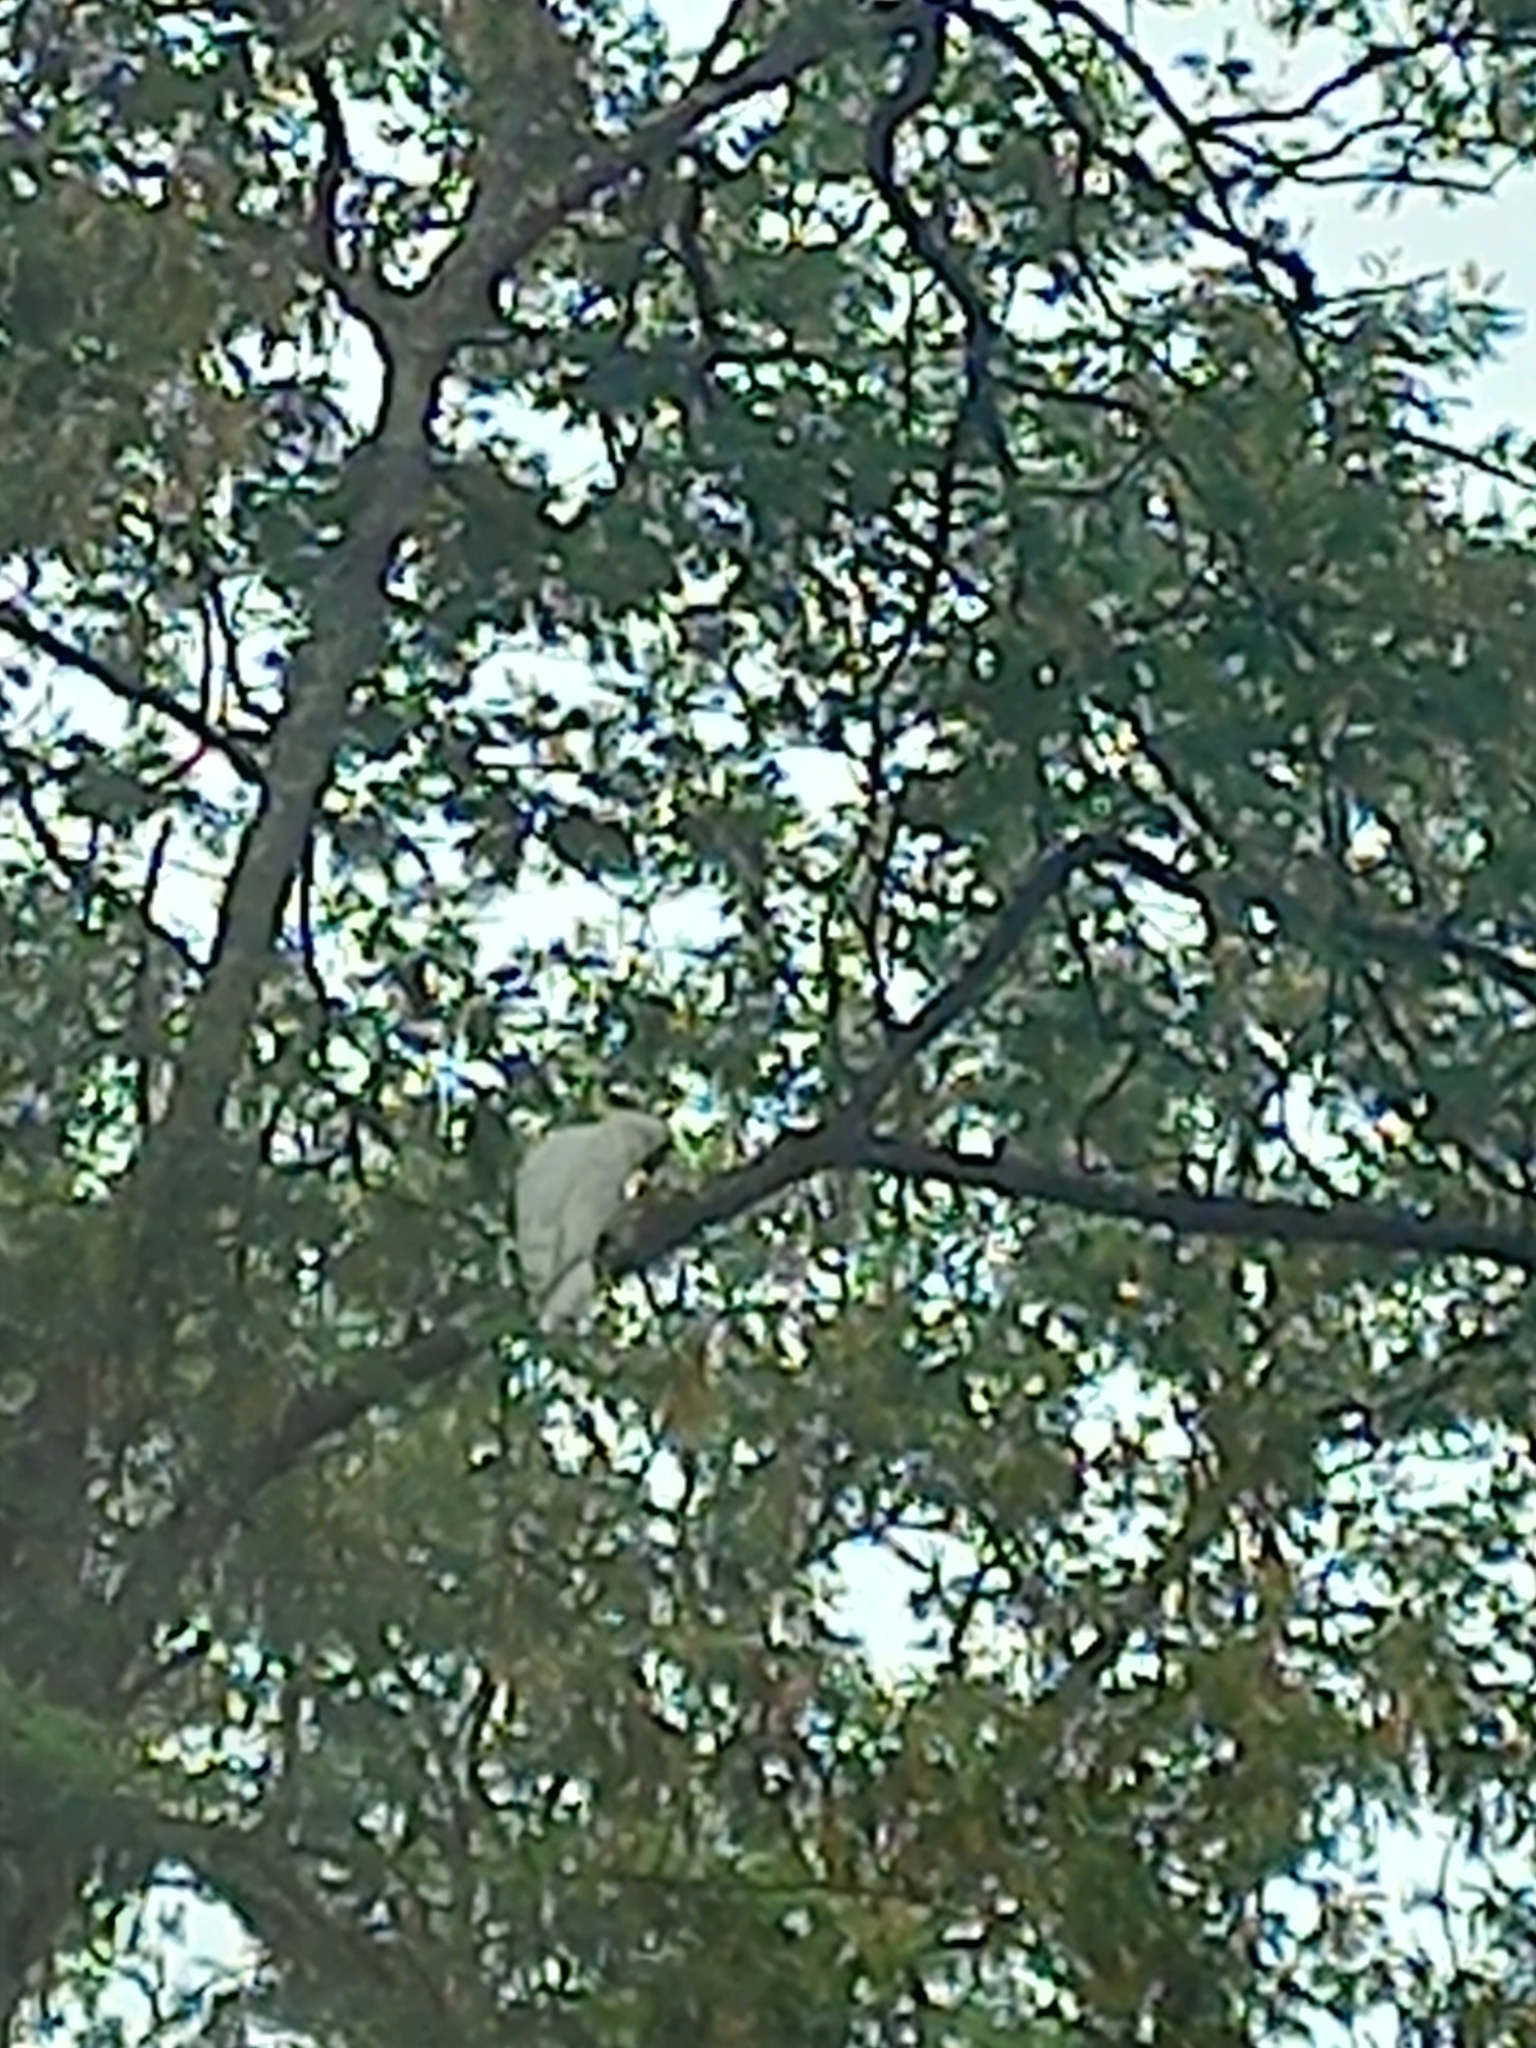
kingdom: Animalia
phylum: Chordata
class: Aves
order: Psittaciformes
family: Psittacidae
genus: Cacatua
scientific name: Cacatua galerita
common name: Sulphur-crested cockatoo
